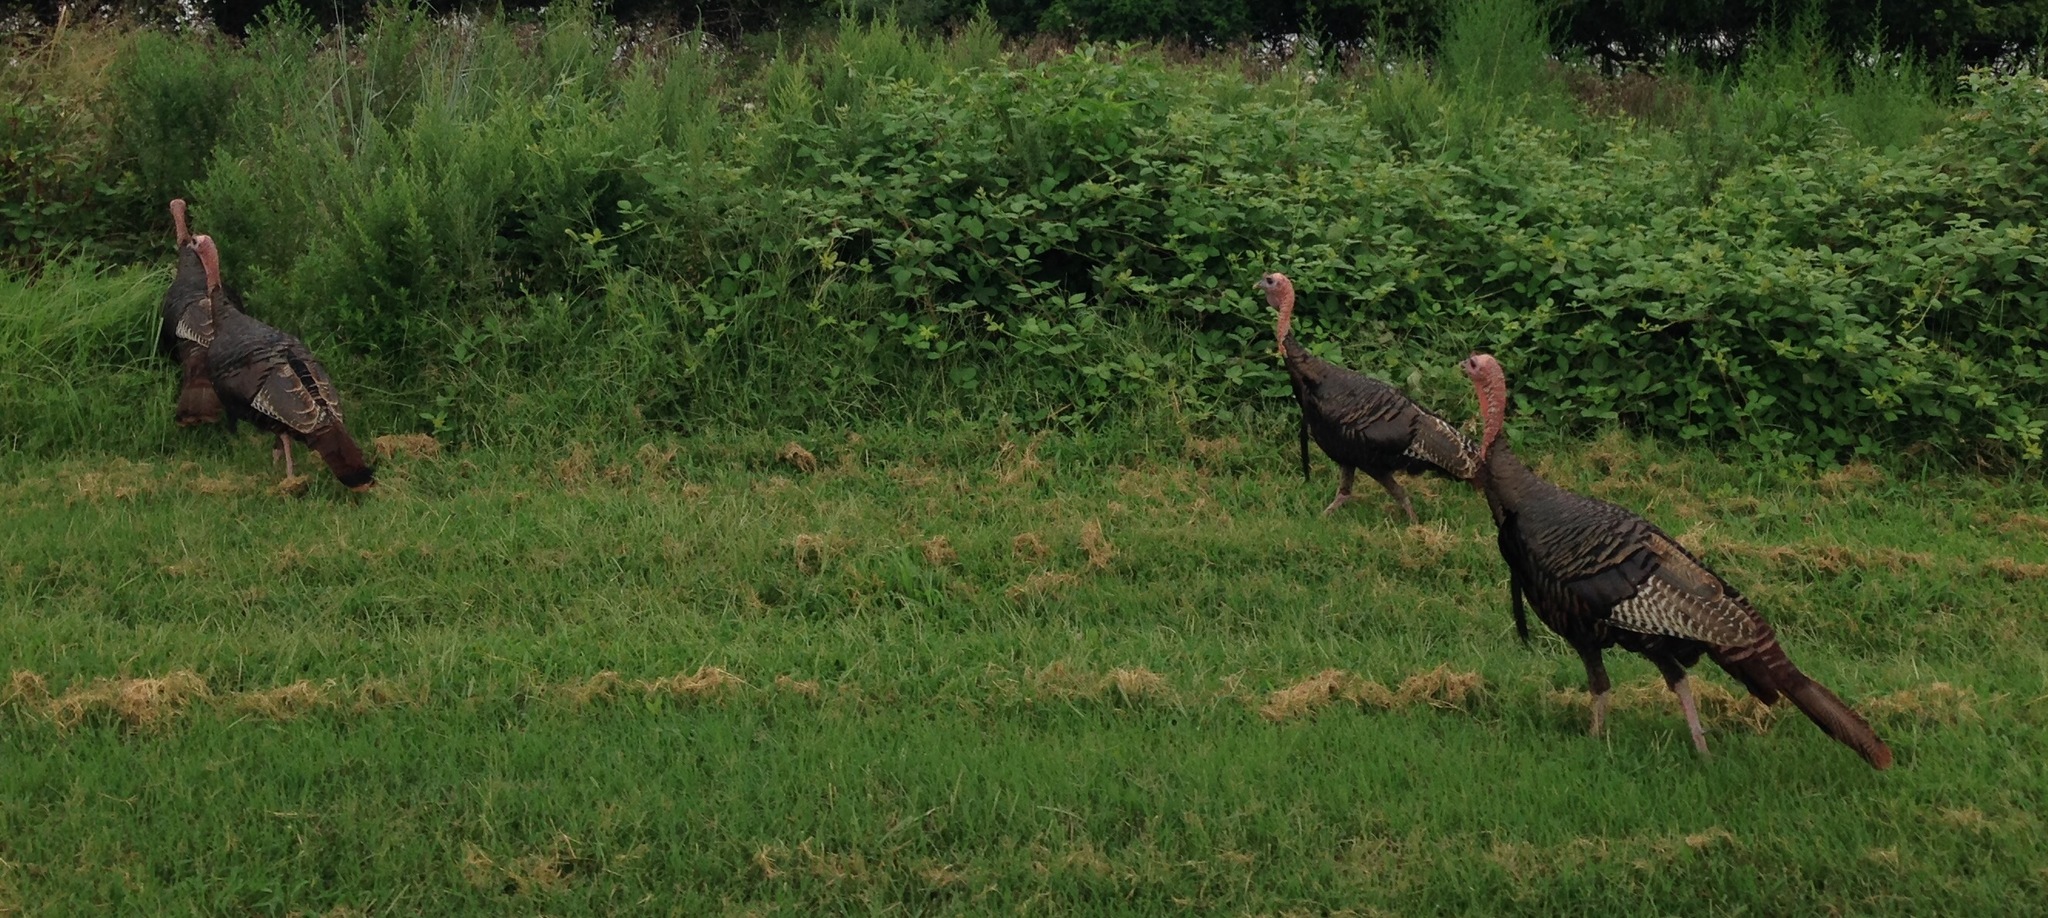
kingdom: Animalia
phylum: Chordata
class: Aves
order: Galliformes
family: Phasianidae
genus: Meleagris
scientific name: Meleagris gallopavo
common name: Wild turkey
